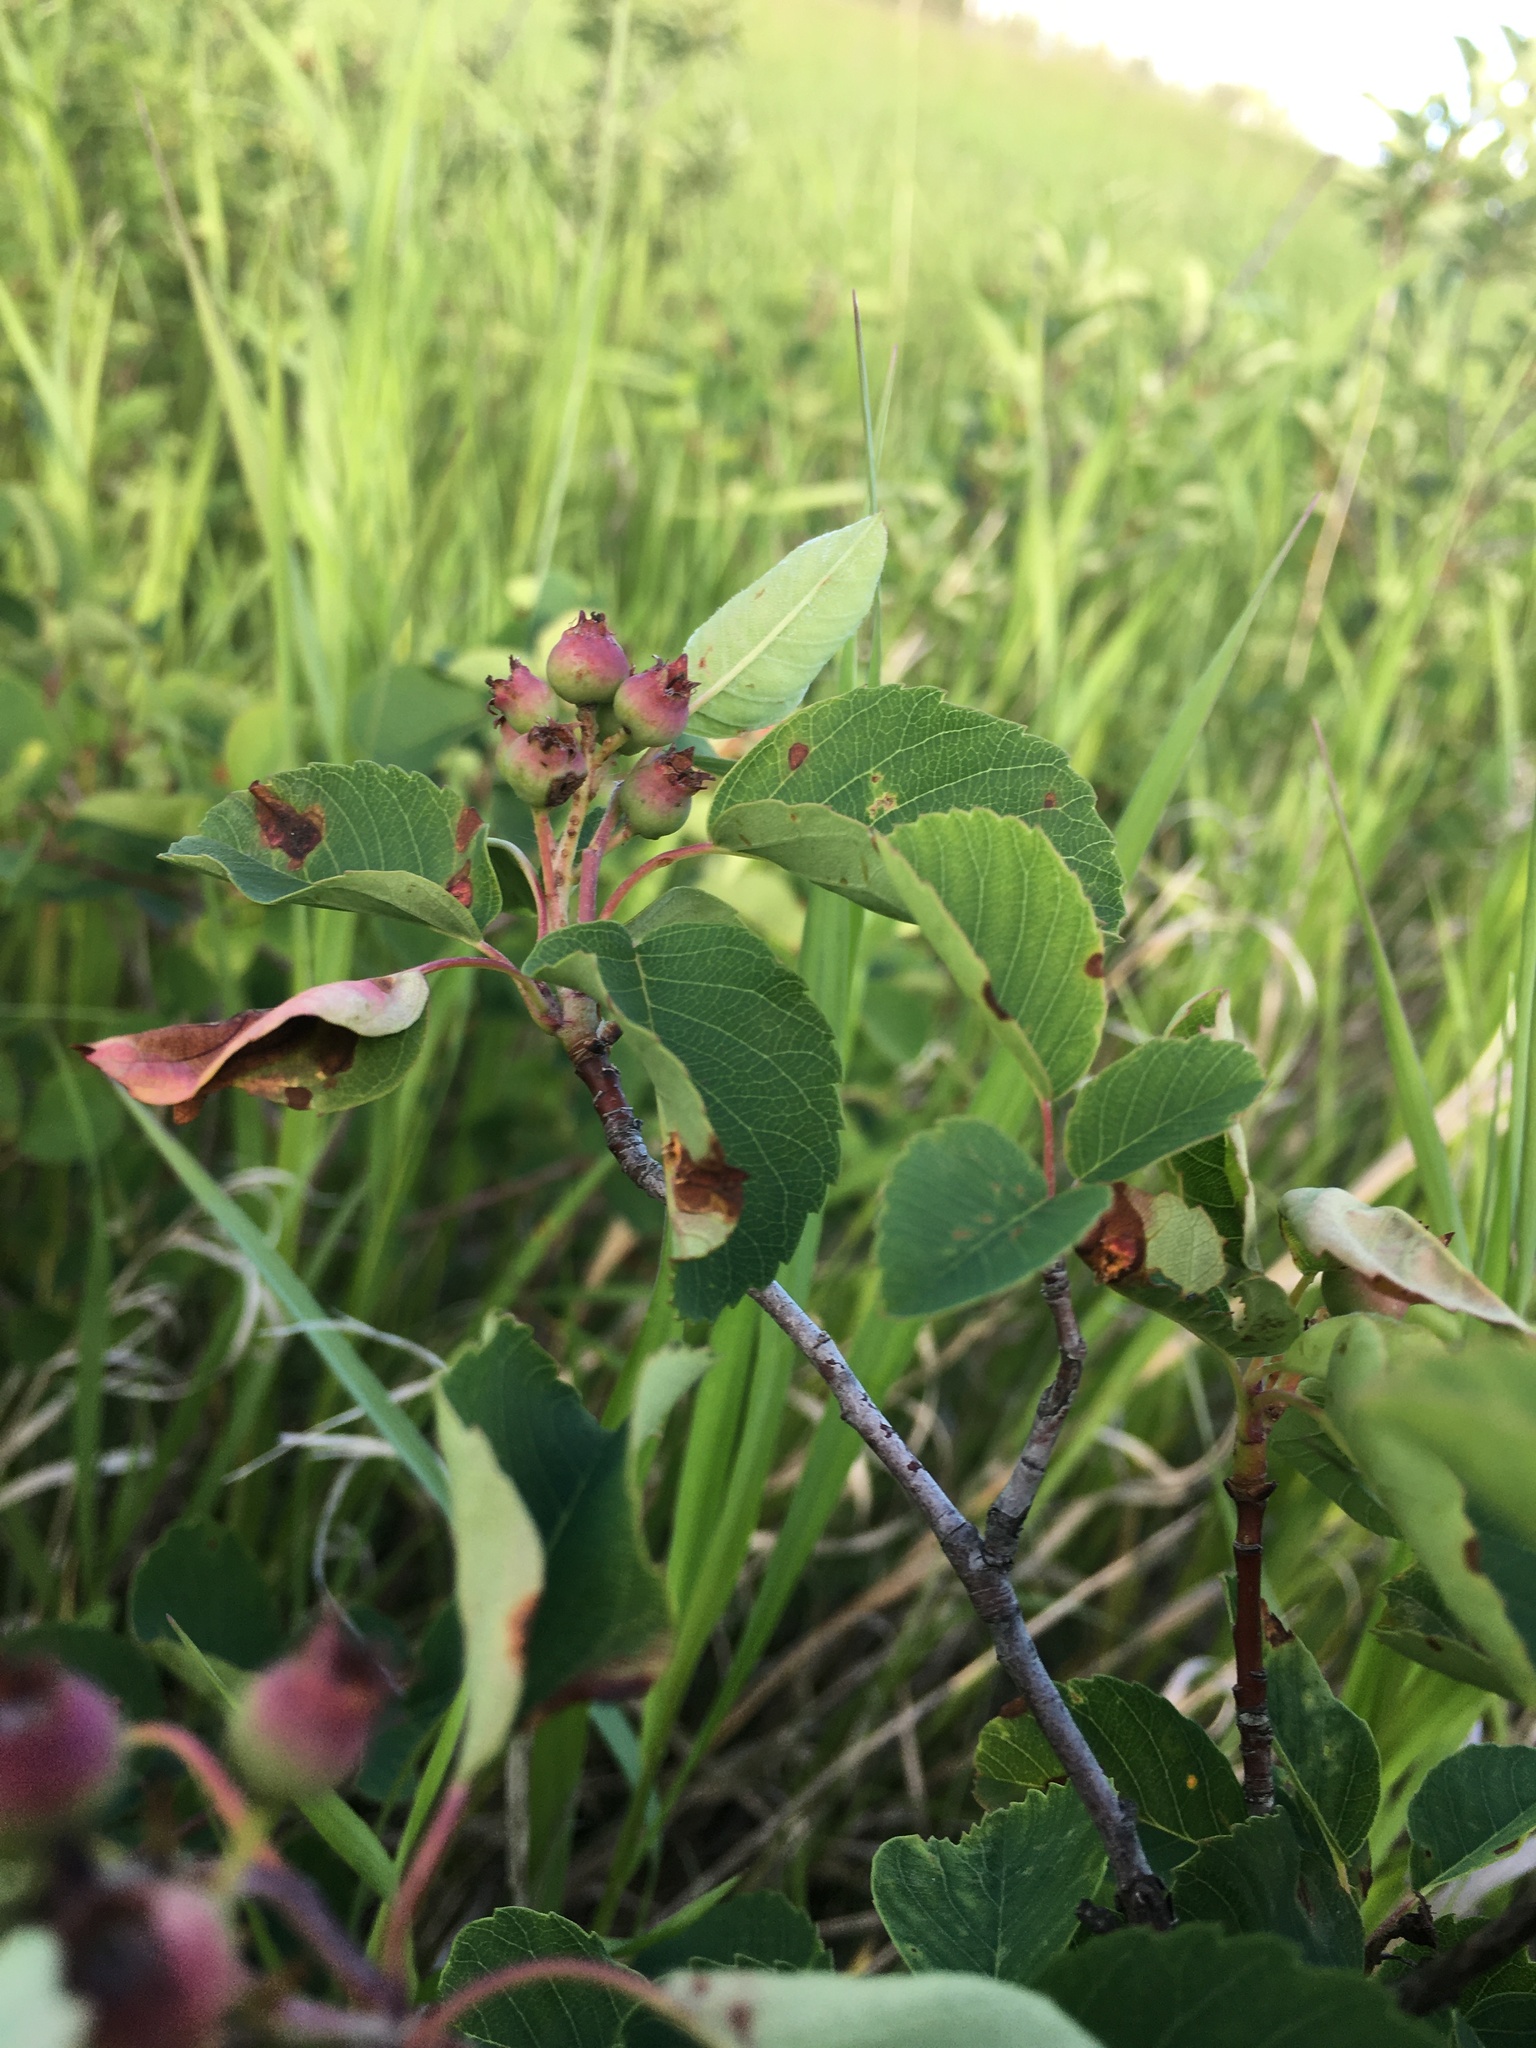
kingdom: Plantae
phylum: Tracheophyta
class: Magnoliopsida
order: Rosales
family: Rosaceae
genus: Amelanchier
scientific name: Amelanchier alnifolia
